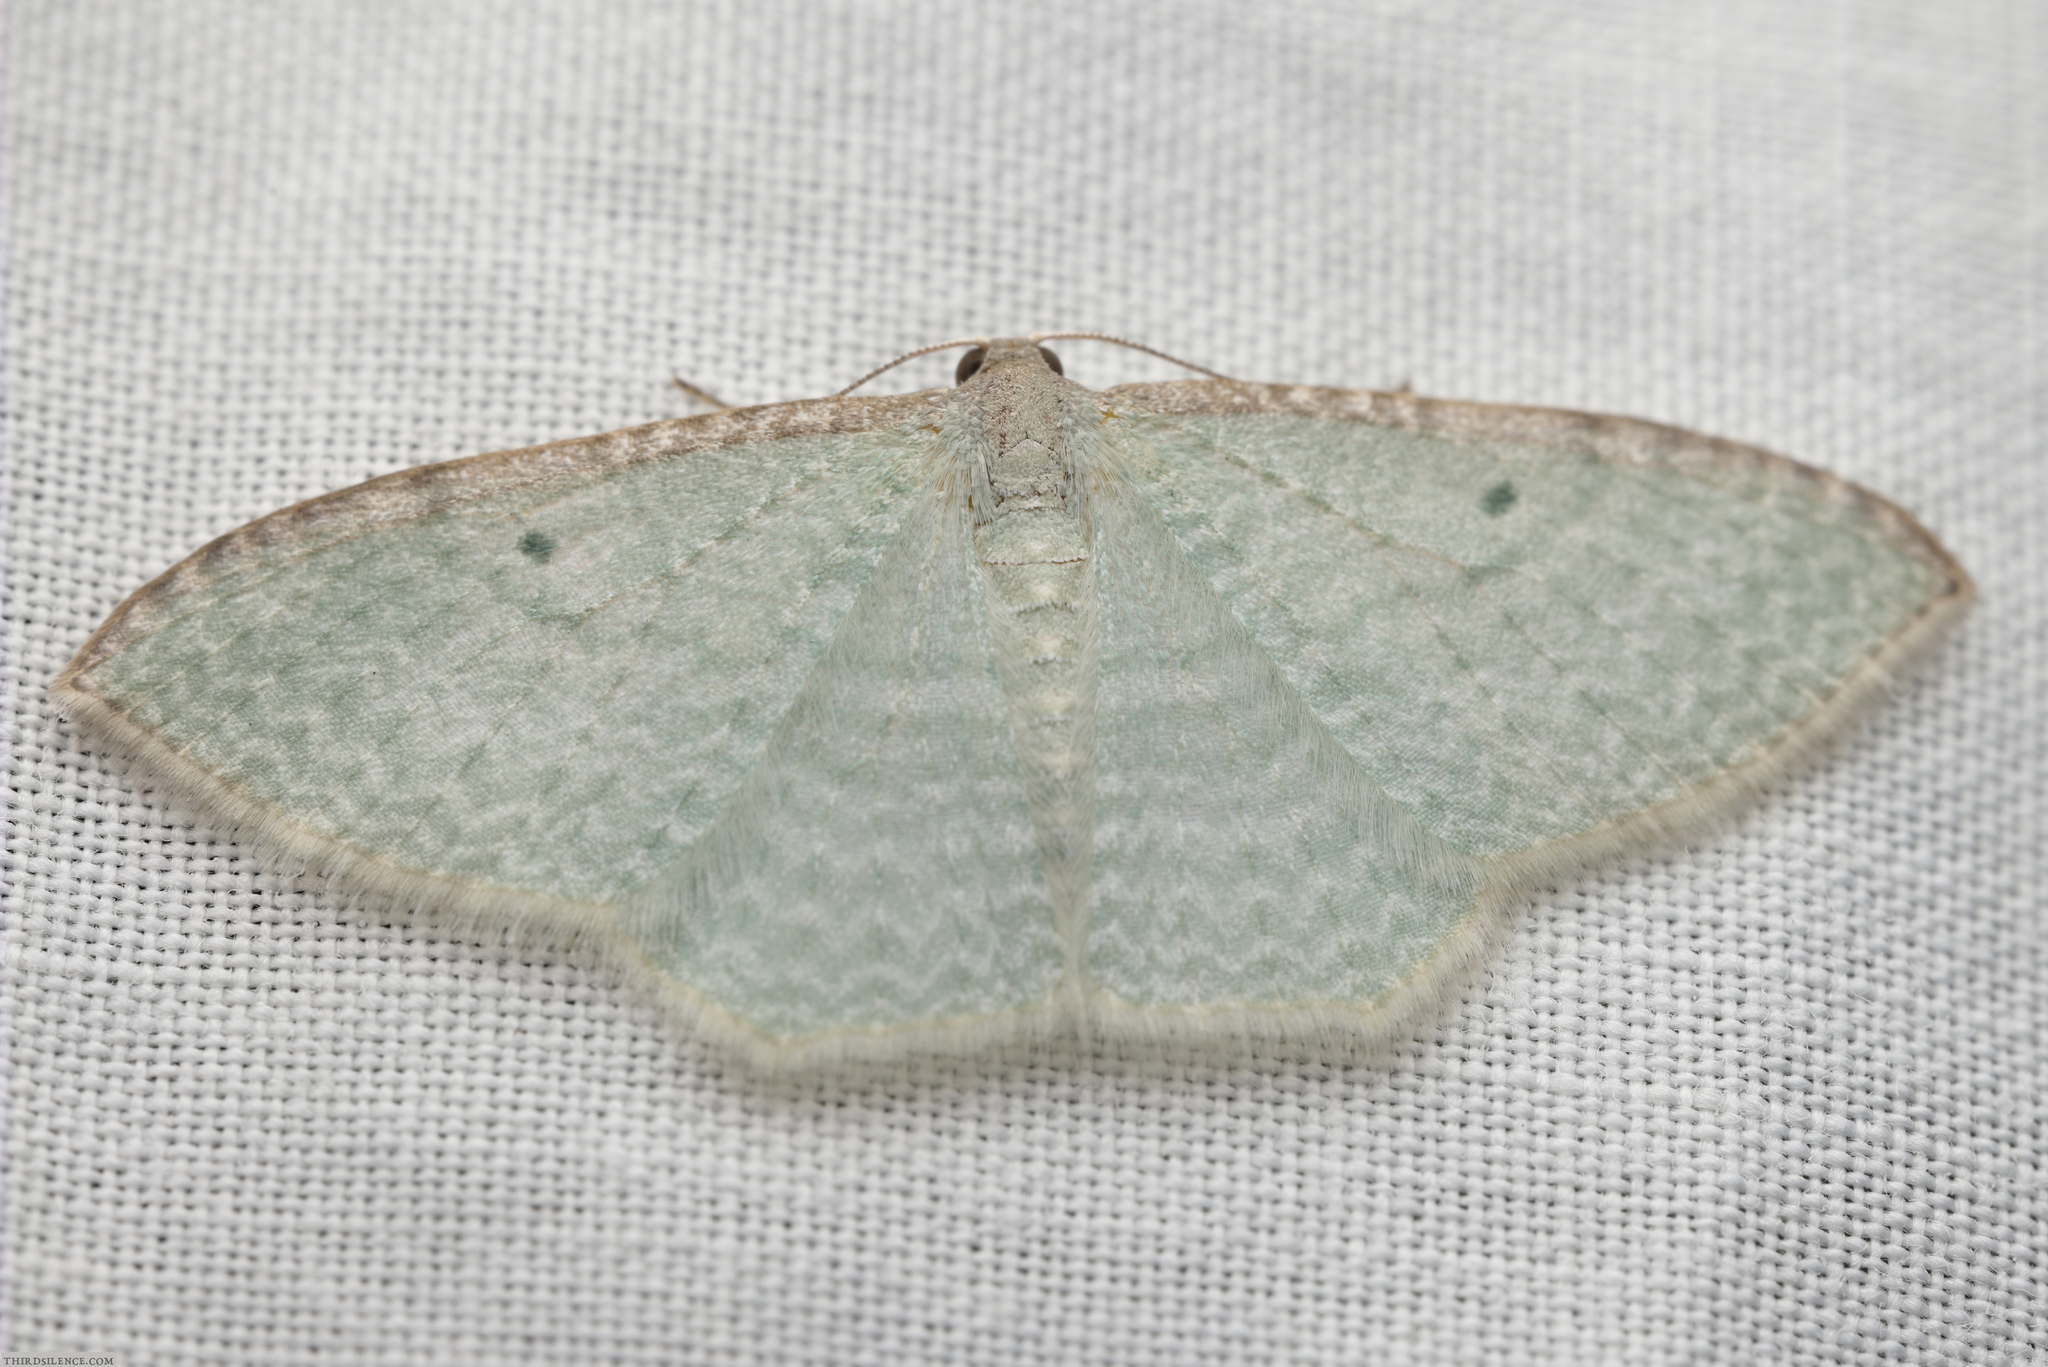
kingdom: Animalia
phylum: Arthropoda
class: Insecta
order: Lepidoptera
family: Geometridae
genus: Poecilasthena
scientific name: Poecilasthena pulchraria
